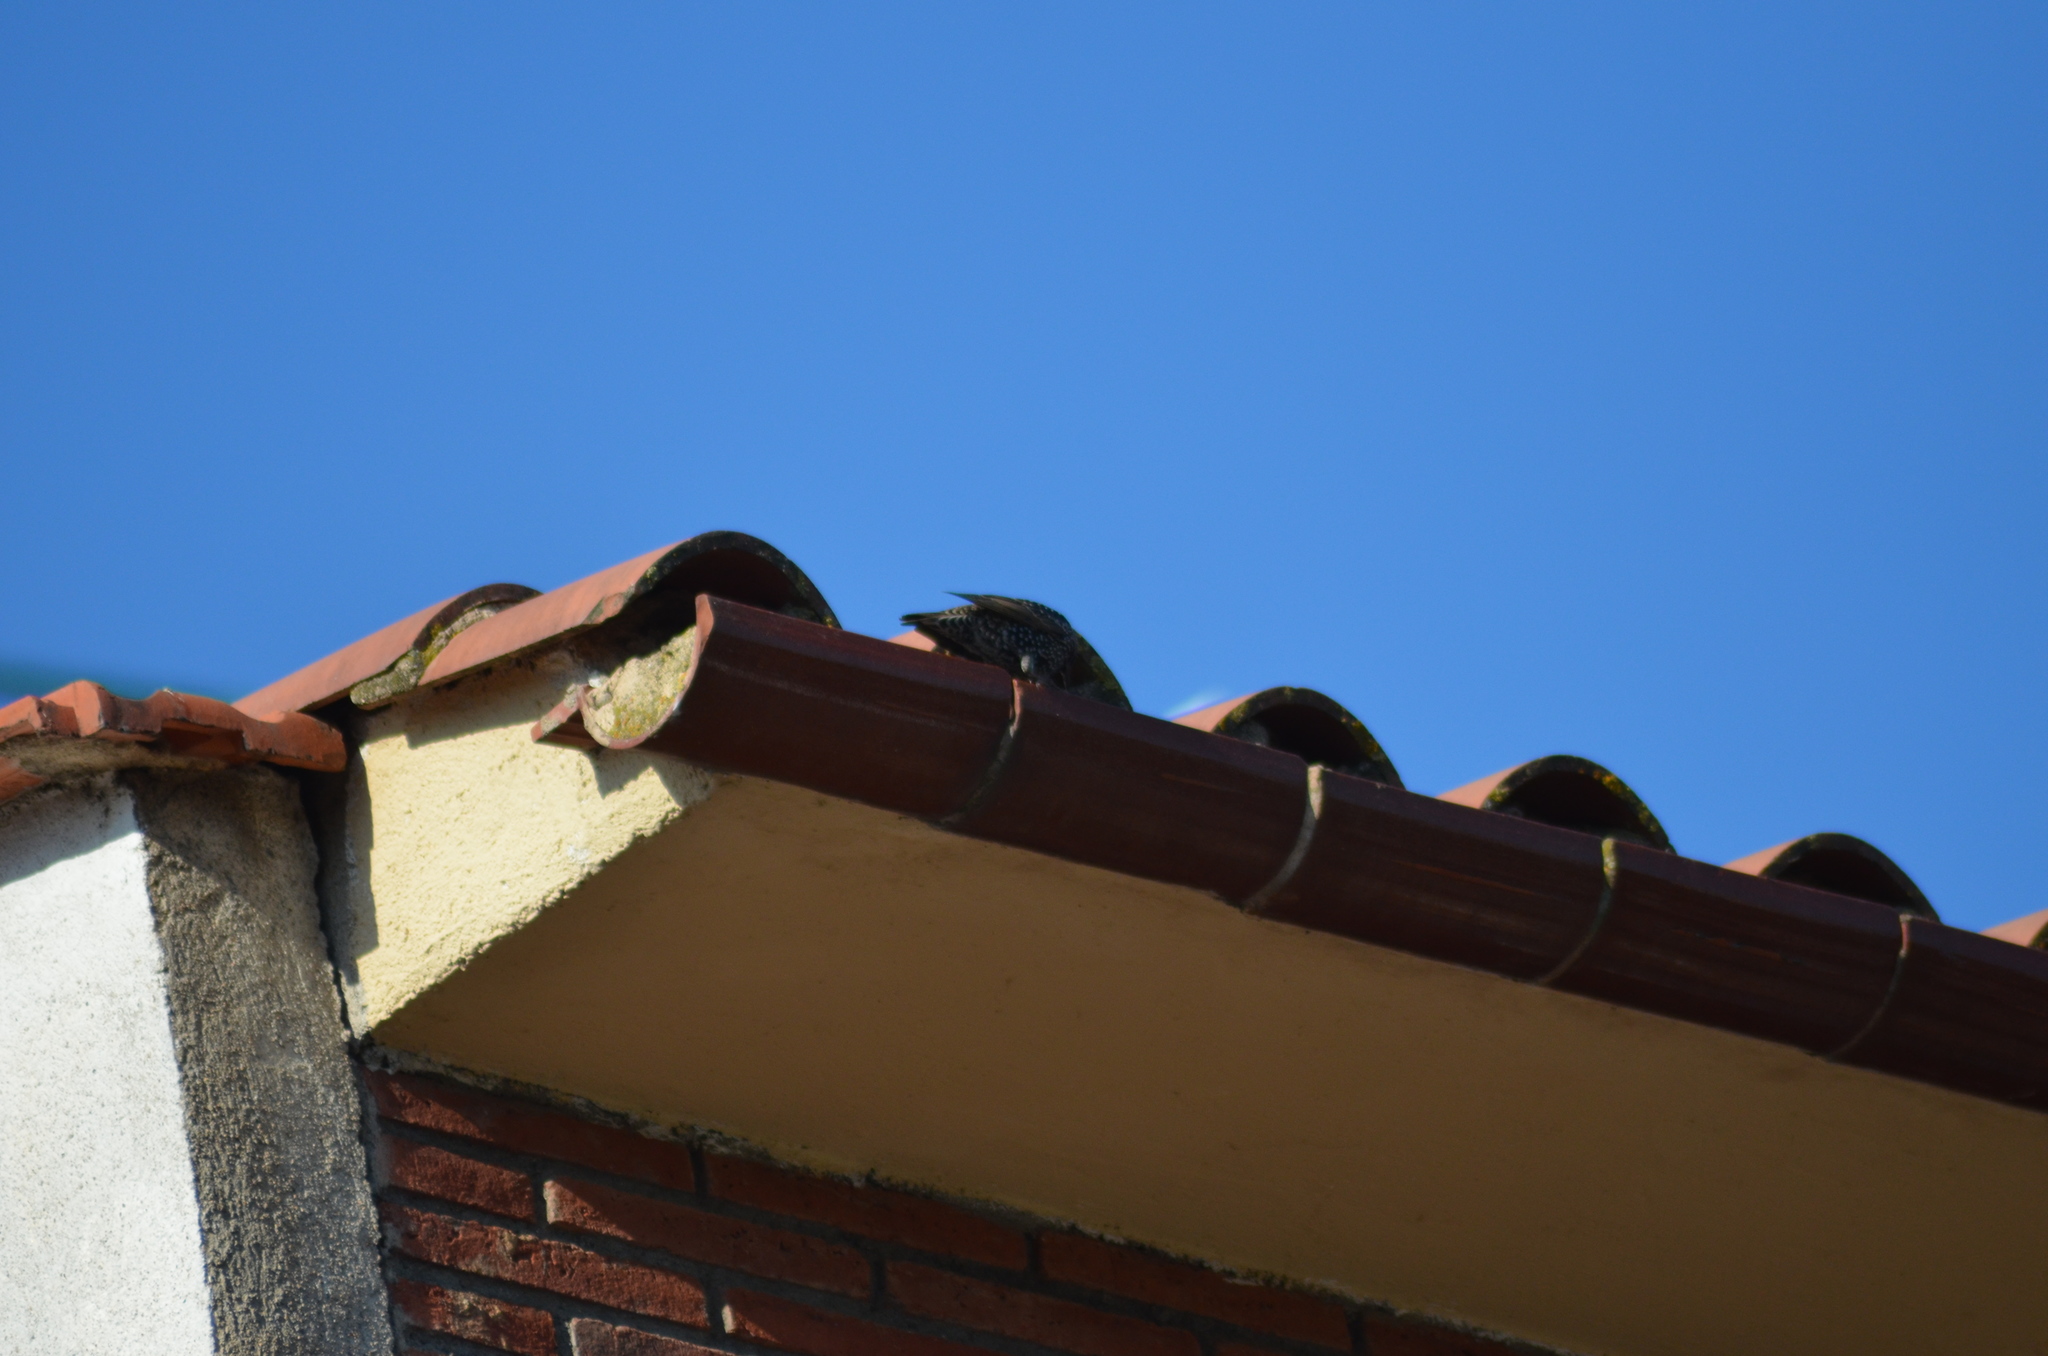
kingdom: Animalia
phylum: Chordata
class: Aves
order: Passeriformes
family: Sturnidae
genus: Sturnus
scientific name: Sturnus vulgaris
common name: Common starling
